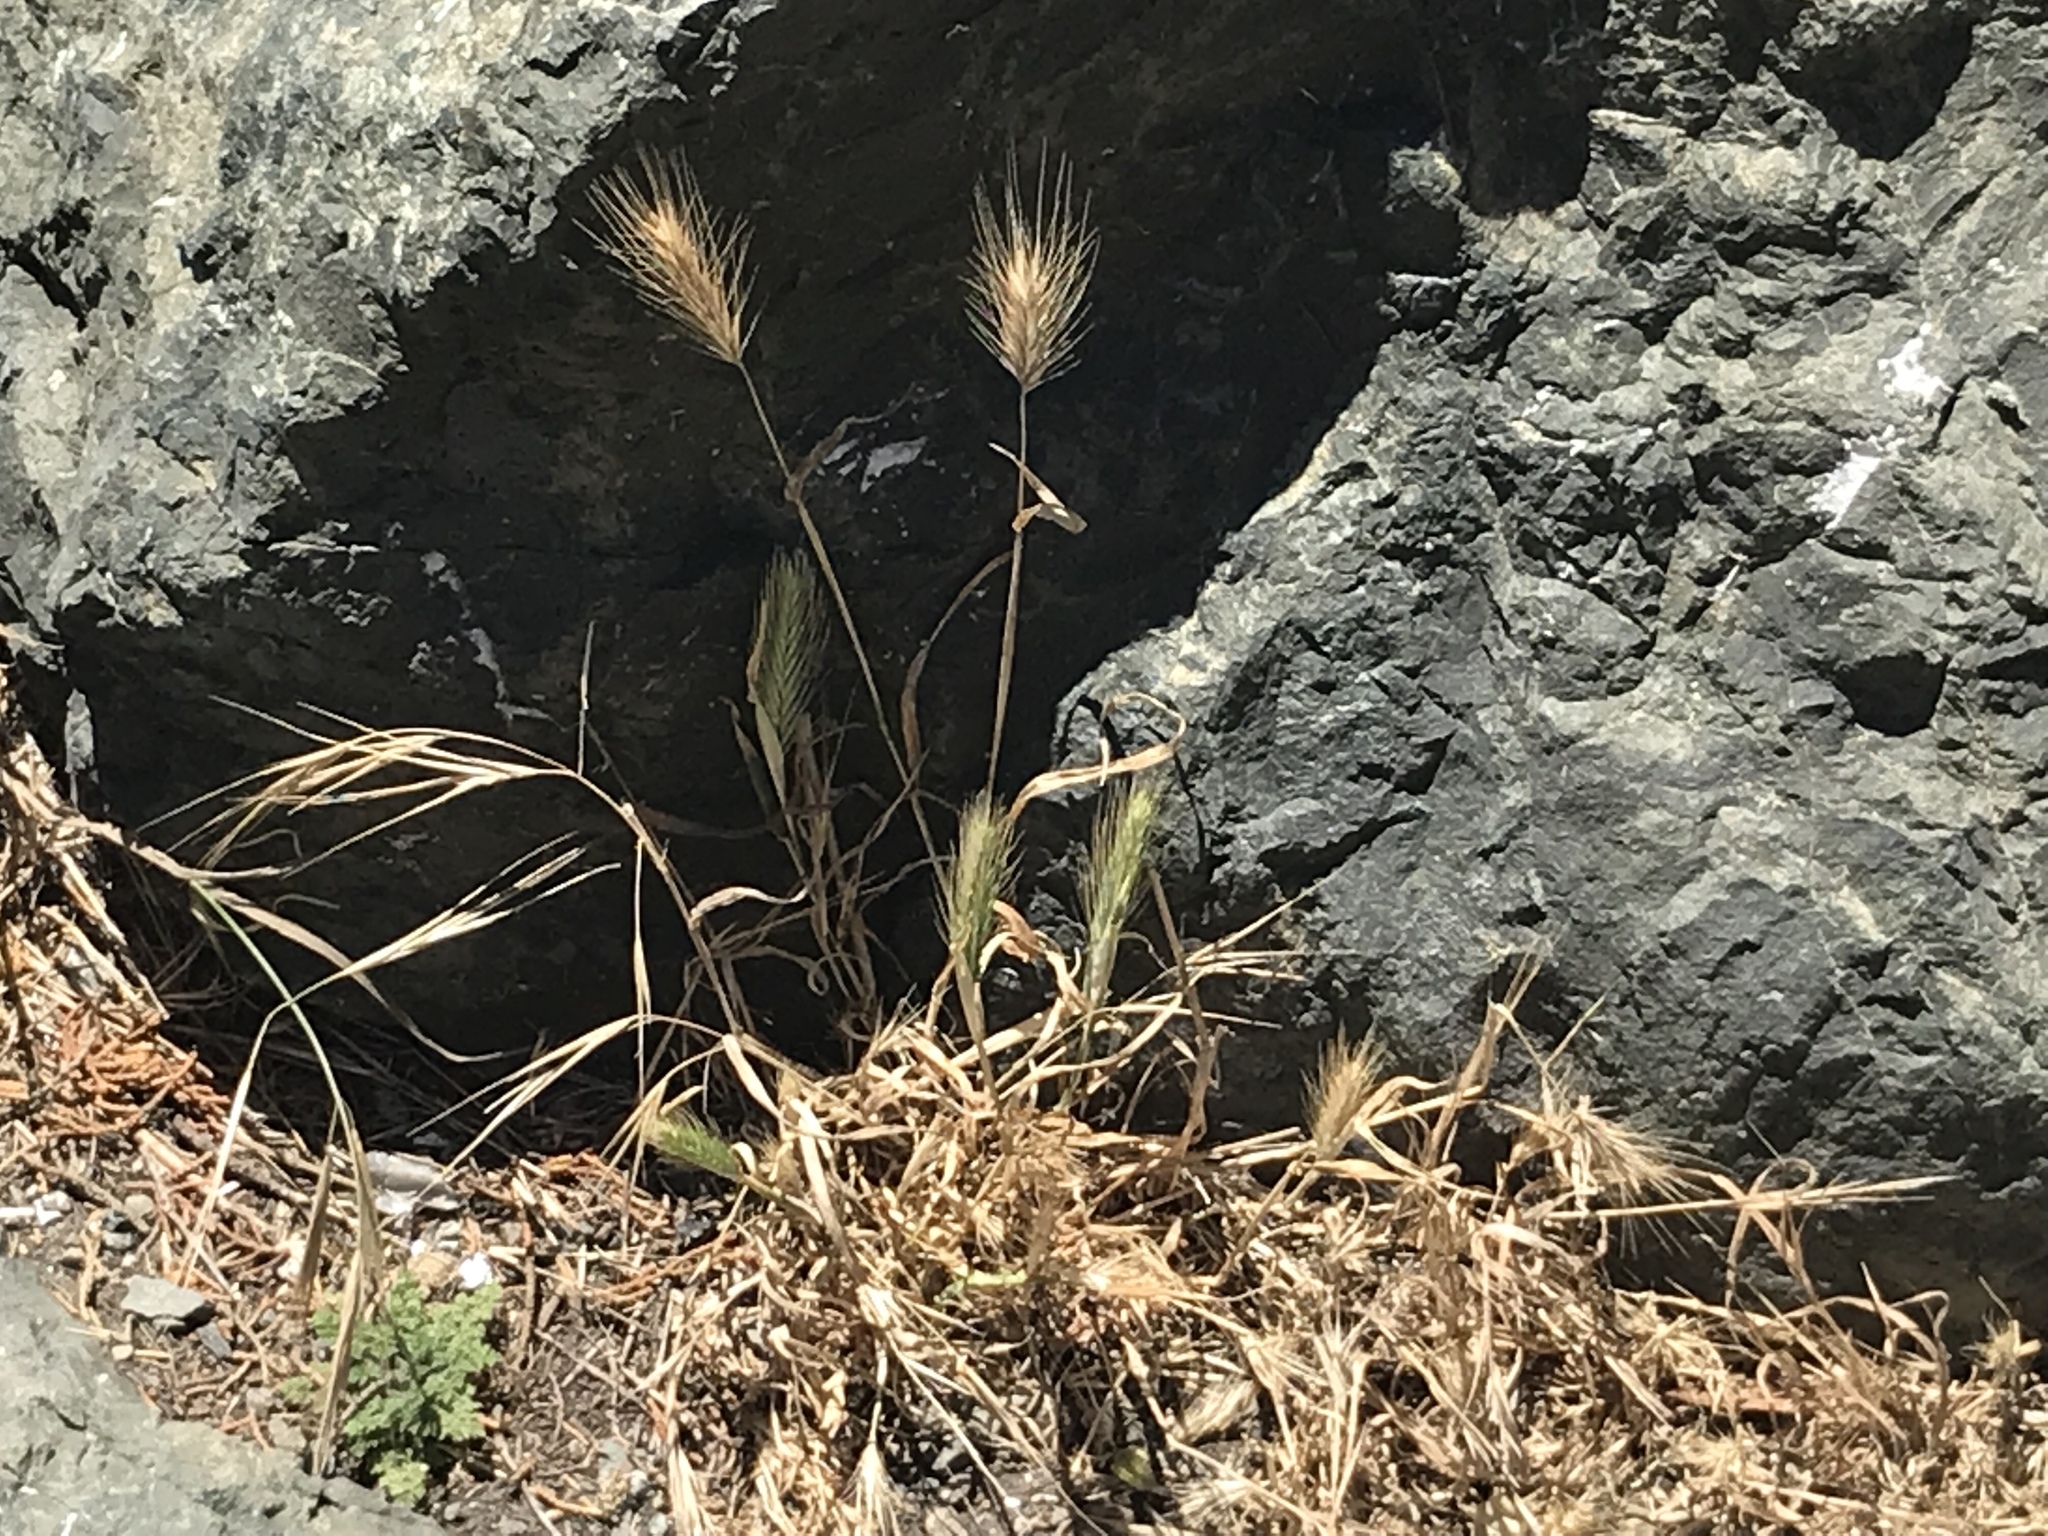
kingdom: Plantae
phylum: Tracheophyta
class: Liliopsida
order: Poales
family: Poaceae
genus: Hordeum
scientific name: Hordeum murinum
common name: Wall barley
